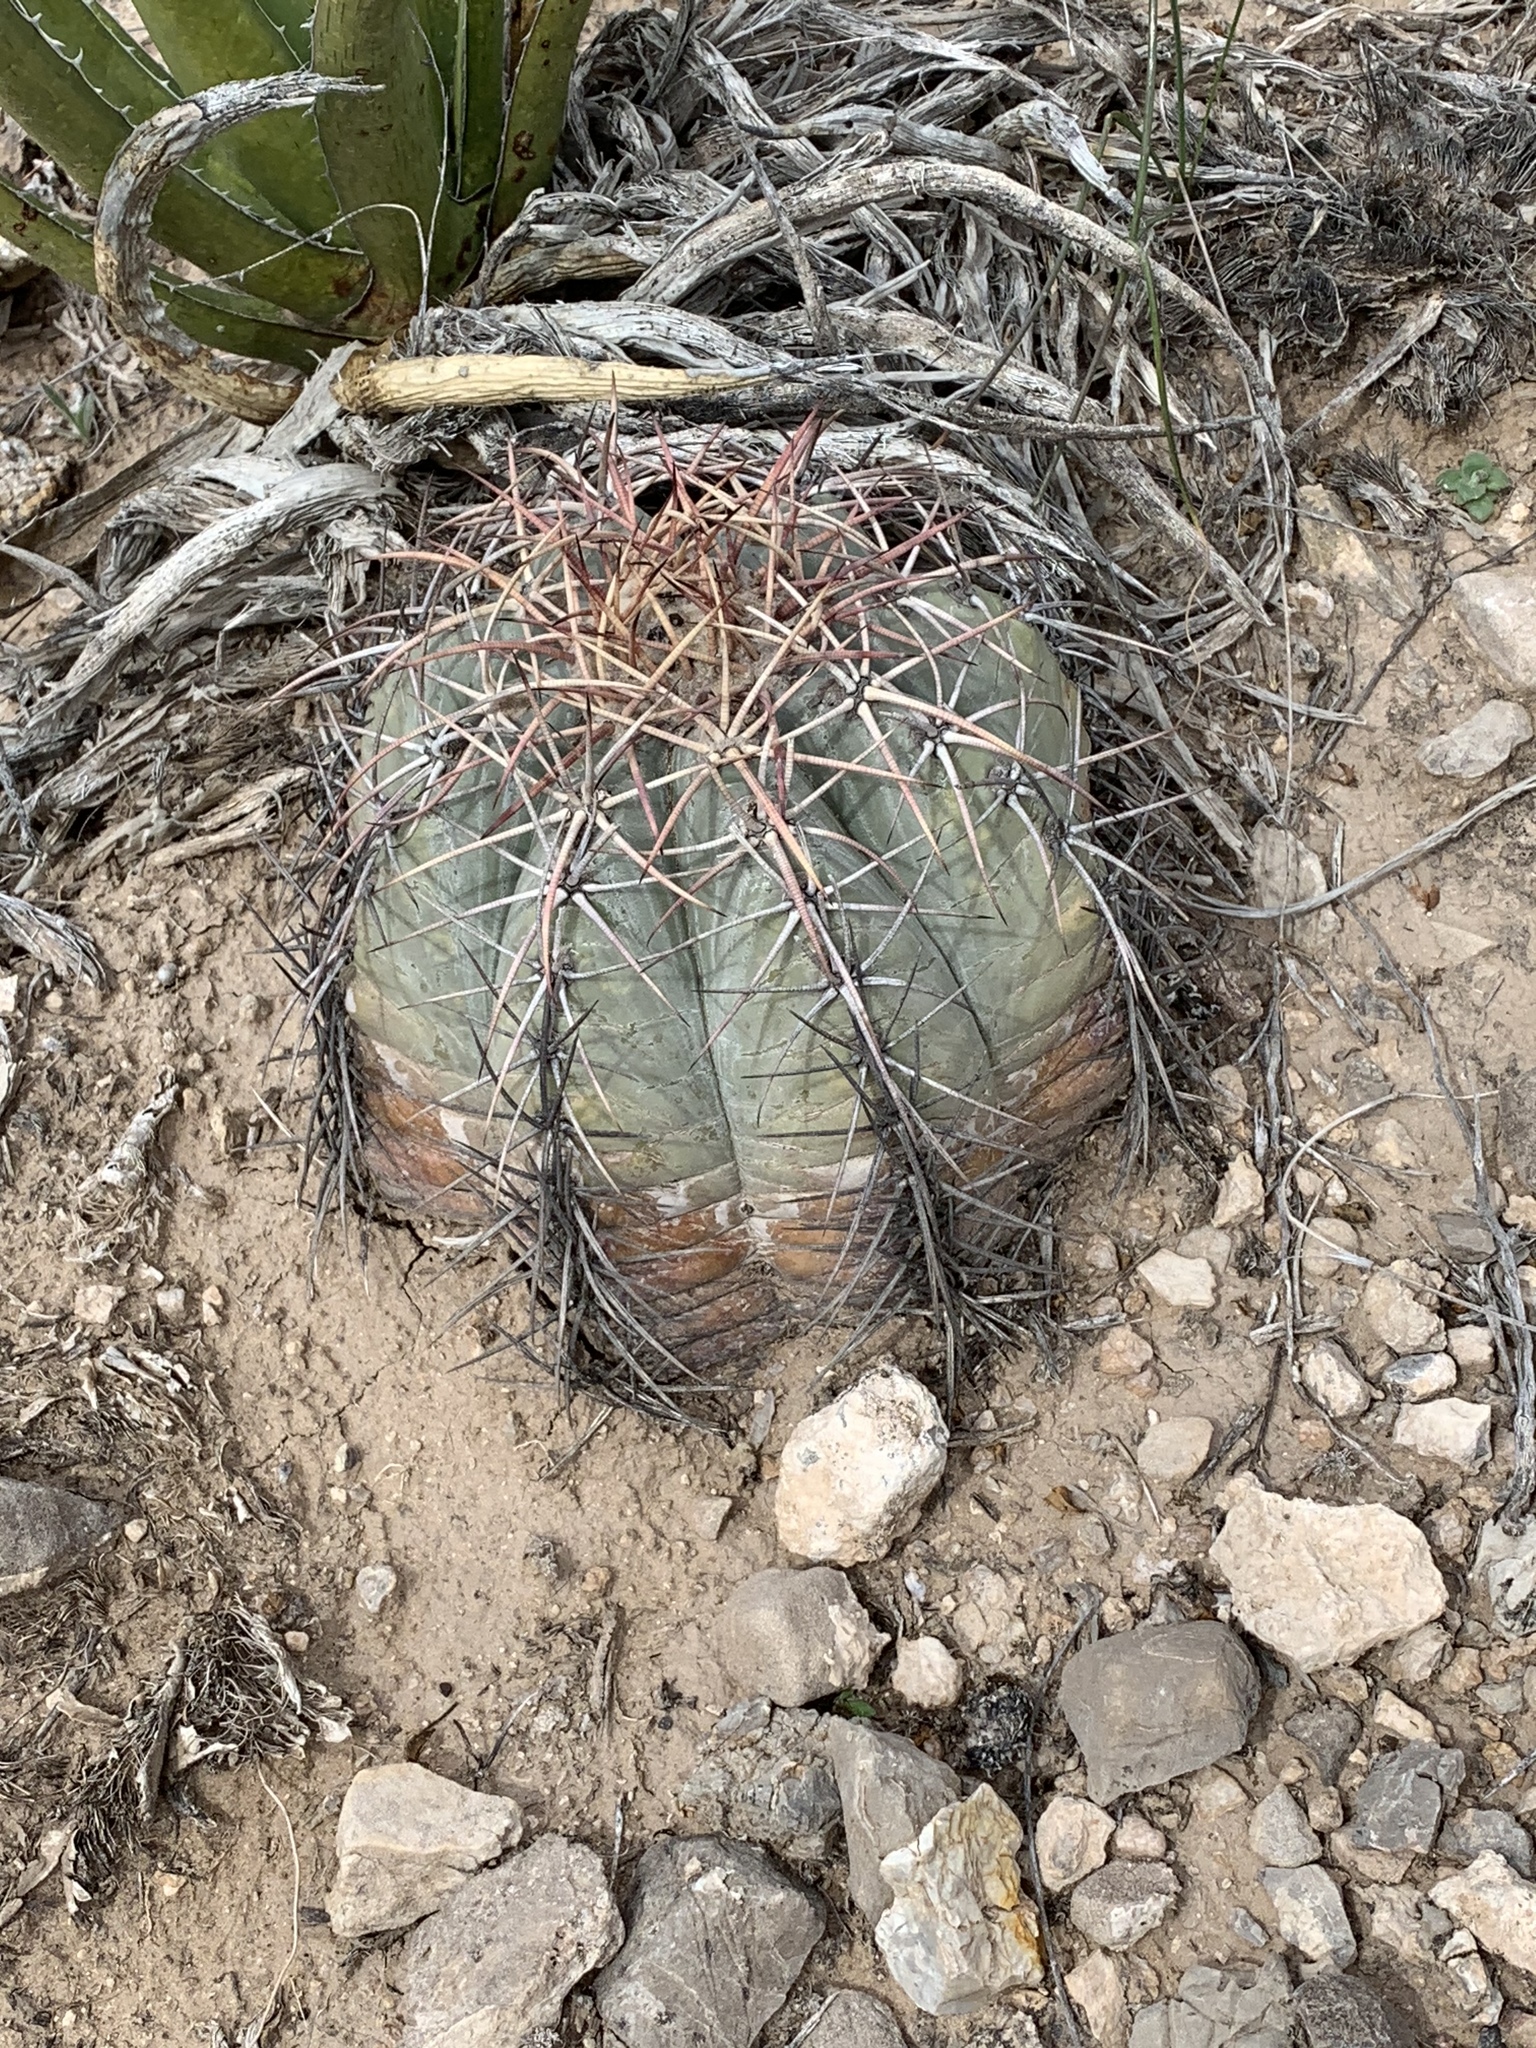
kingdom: Plantae
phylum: Tracheophyta
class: Magnoliopsida
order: Caryophyllales
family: Cactaceae
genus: Echinocactus
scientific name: Echinocactus horizonthalonius
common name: Devilshead
